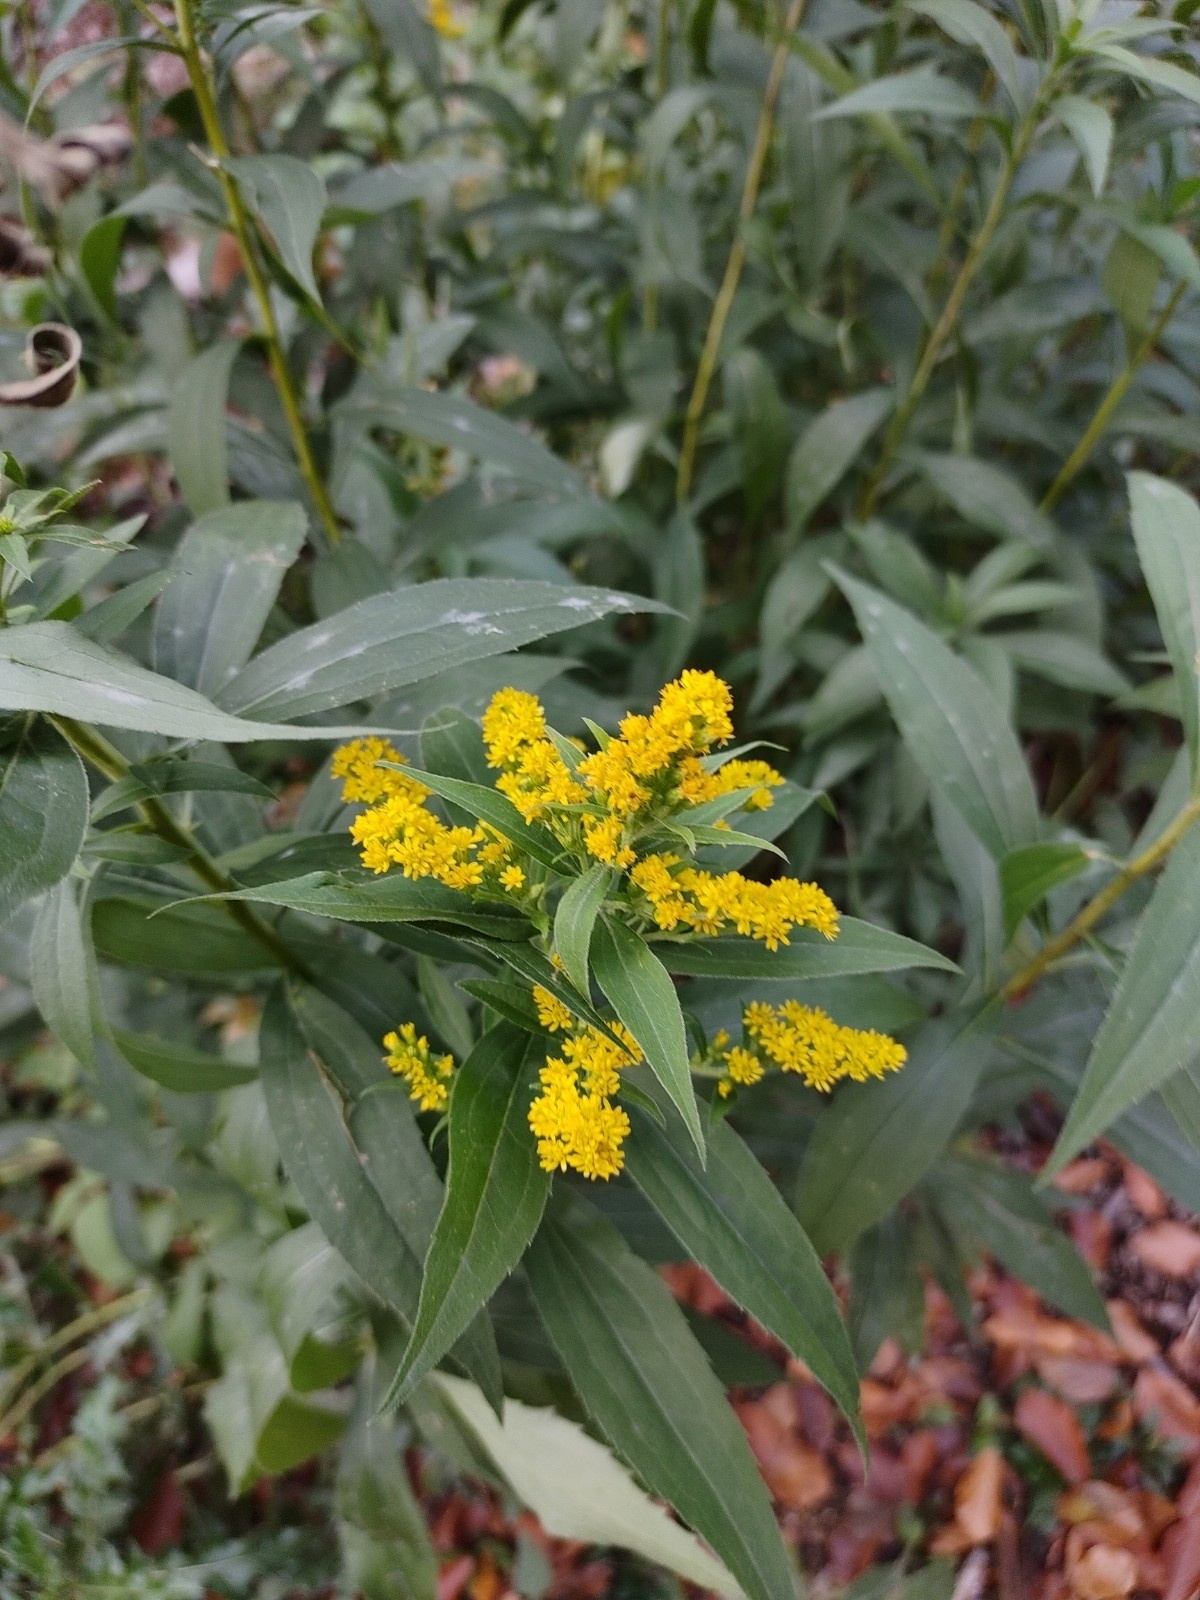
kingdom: Plantae
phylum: Tracheophyta
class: Magnoliopsida
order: Asterales
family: Asteraceae
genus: Solidago
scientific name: Solidago canadensis
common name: Canada goldenrod
